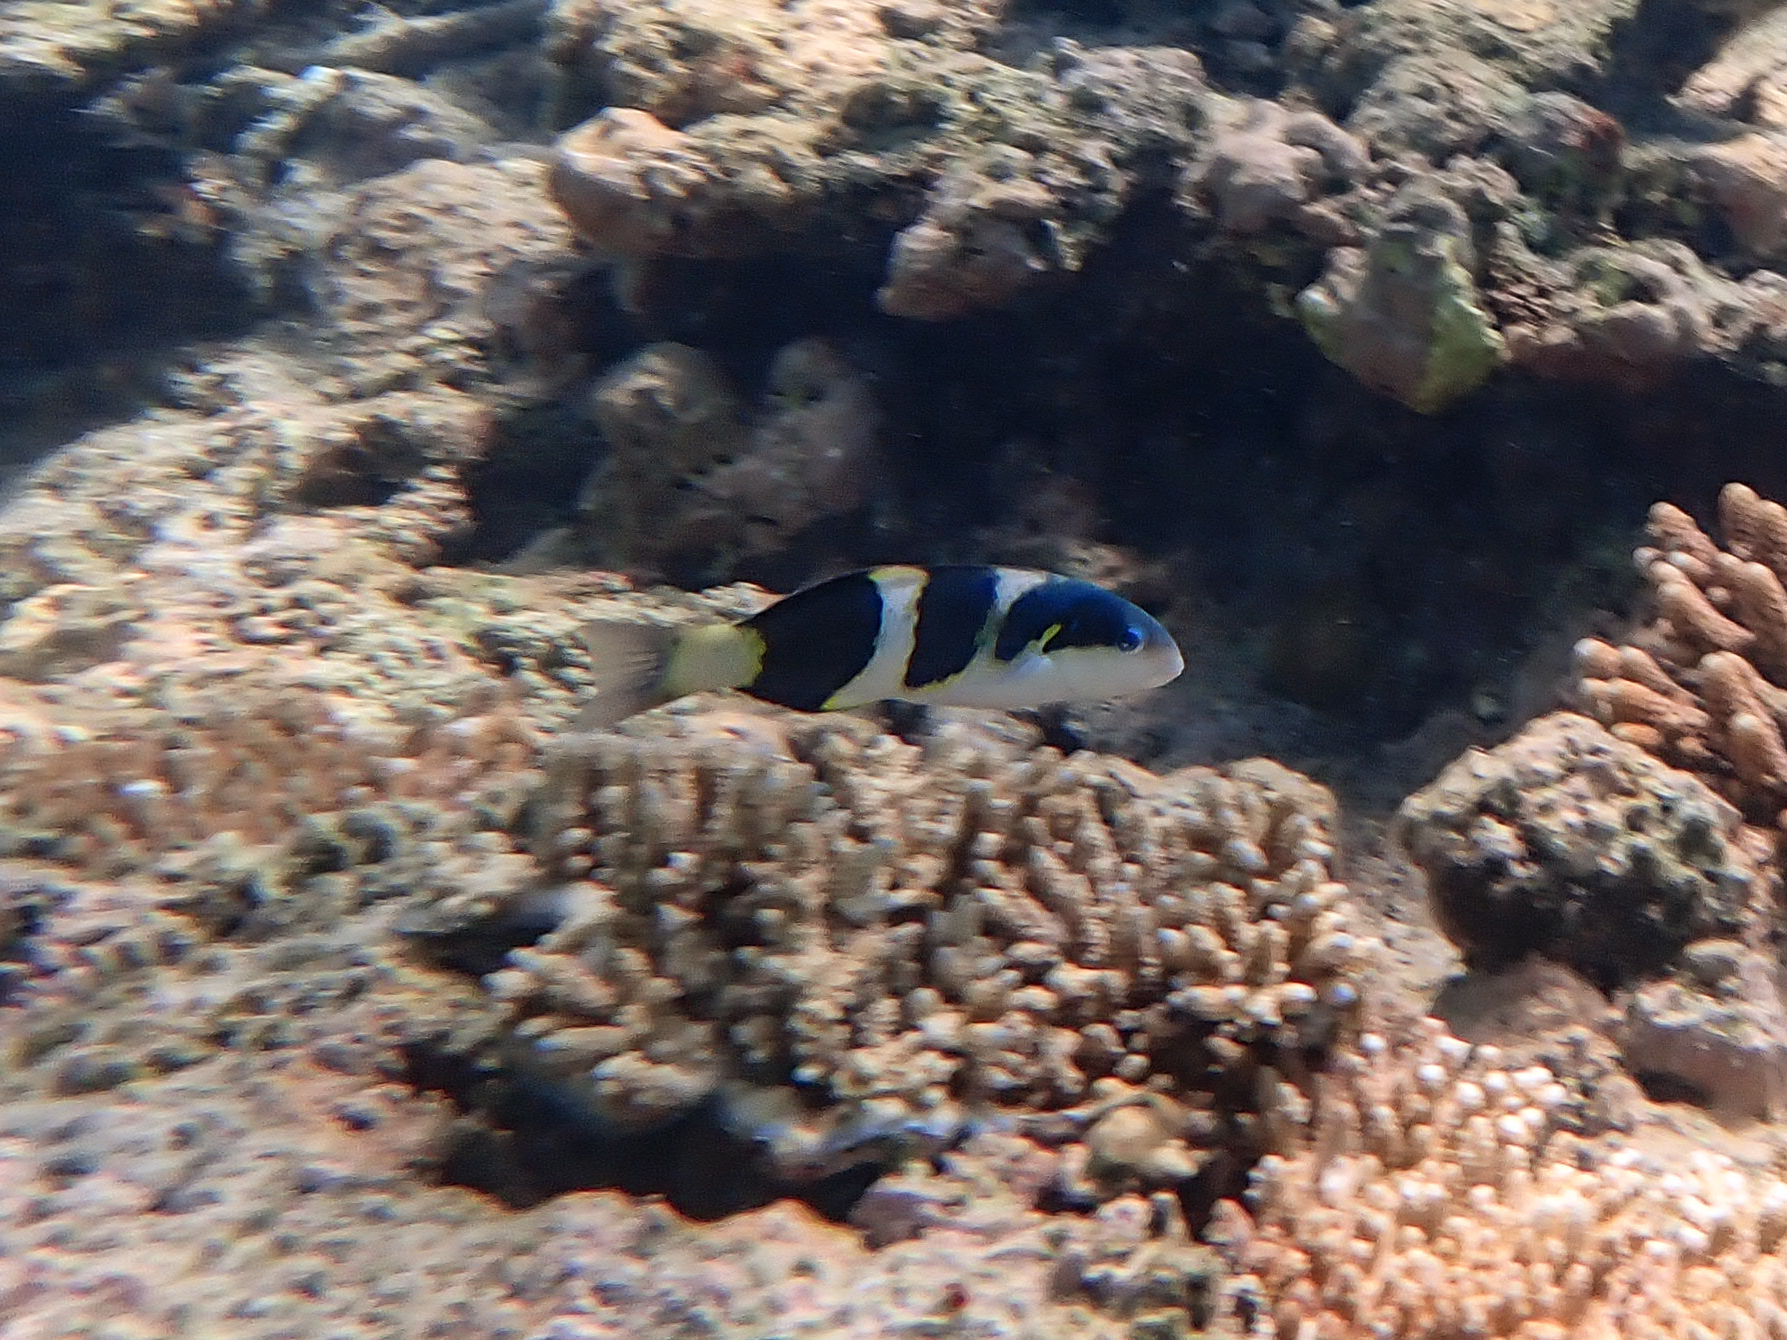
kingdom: Animalia
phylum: Chordata
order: Perciformes
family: Labridae
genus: Thalassoma
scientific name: Thalassoma nigrofasciatum
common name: Black-barred wrasse
